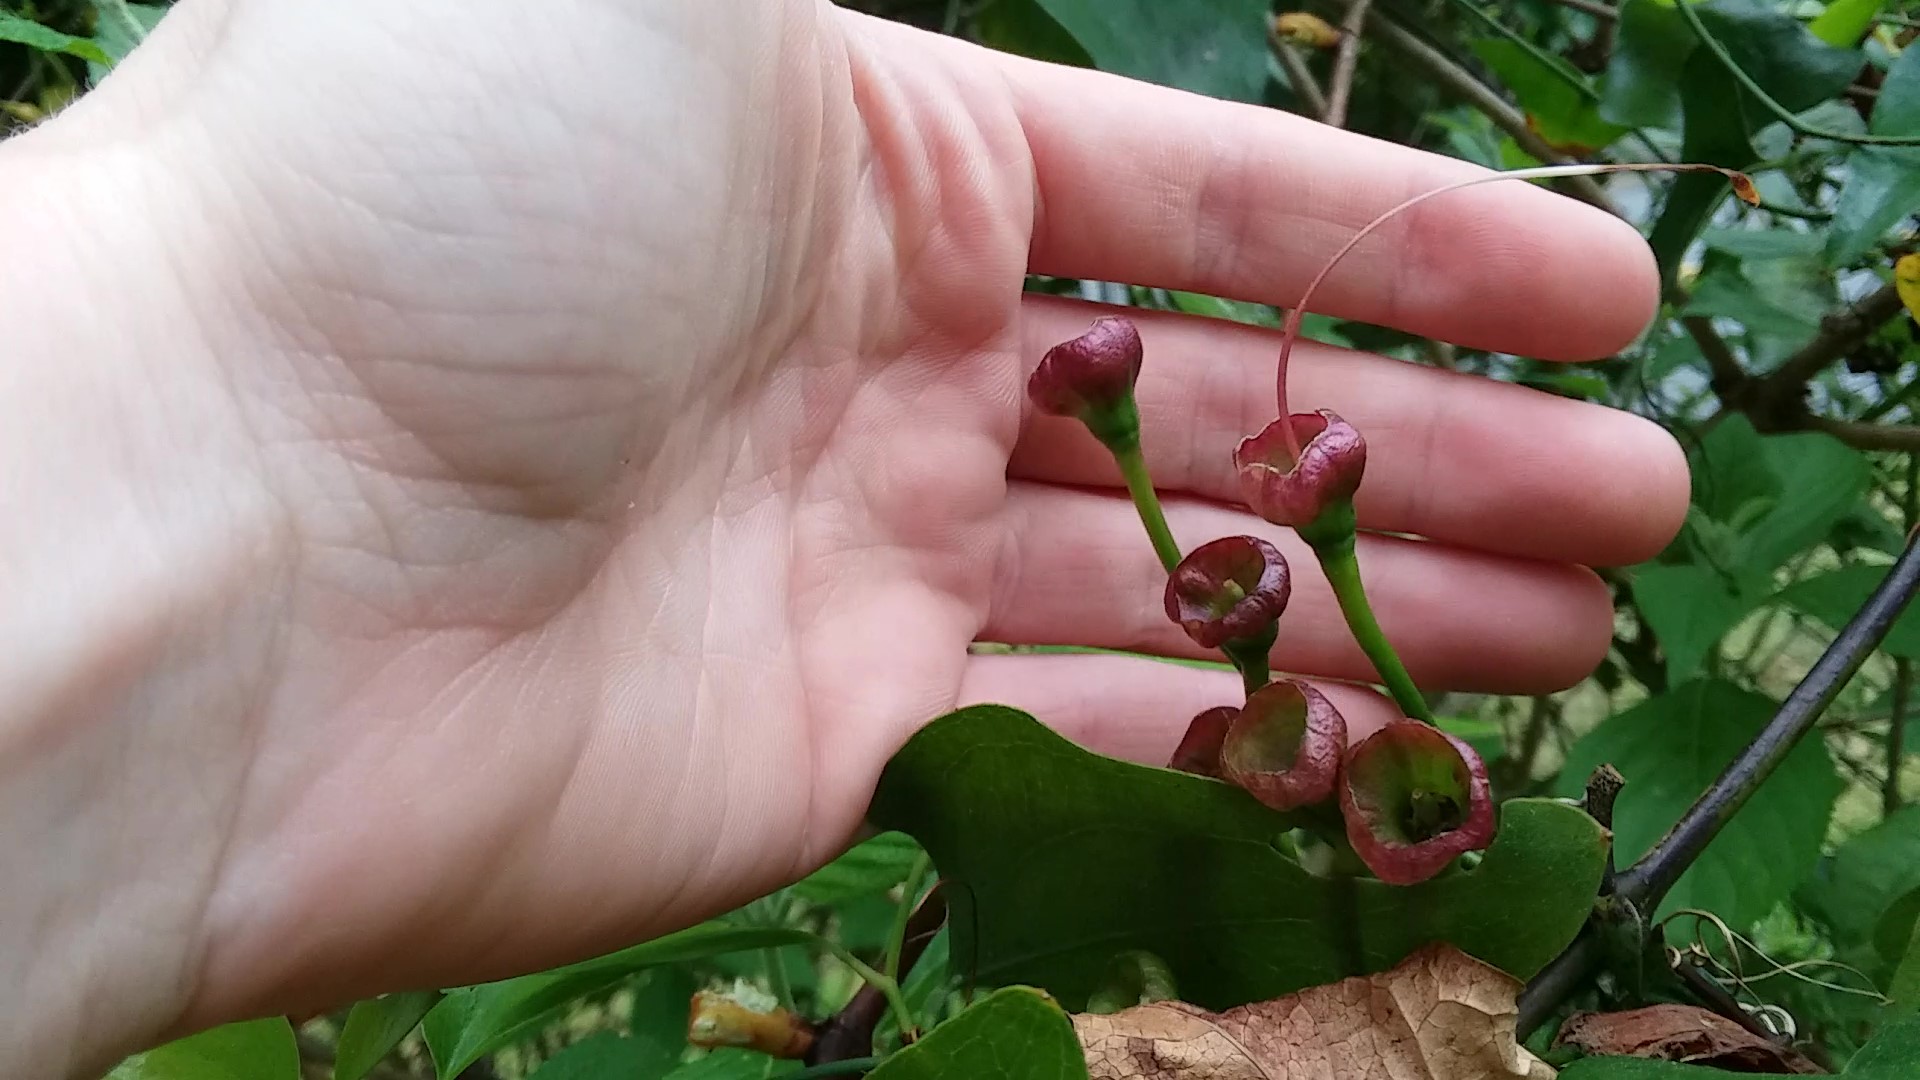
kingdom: Plantae
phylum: Tracheophyta
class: Magnoliopsida
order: Lamiales
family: Bignoniaceae
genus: Bignonia
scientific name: Bignonia capreolata
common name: Crossvine
